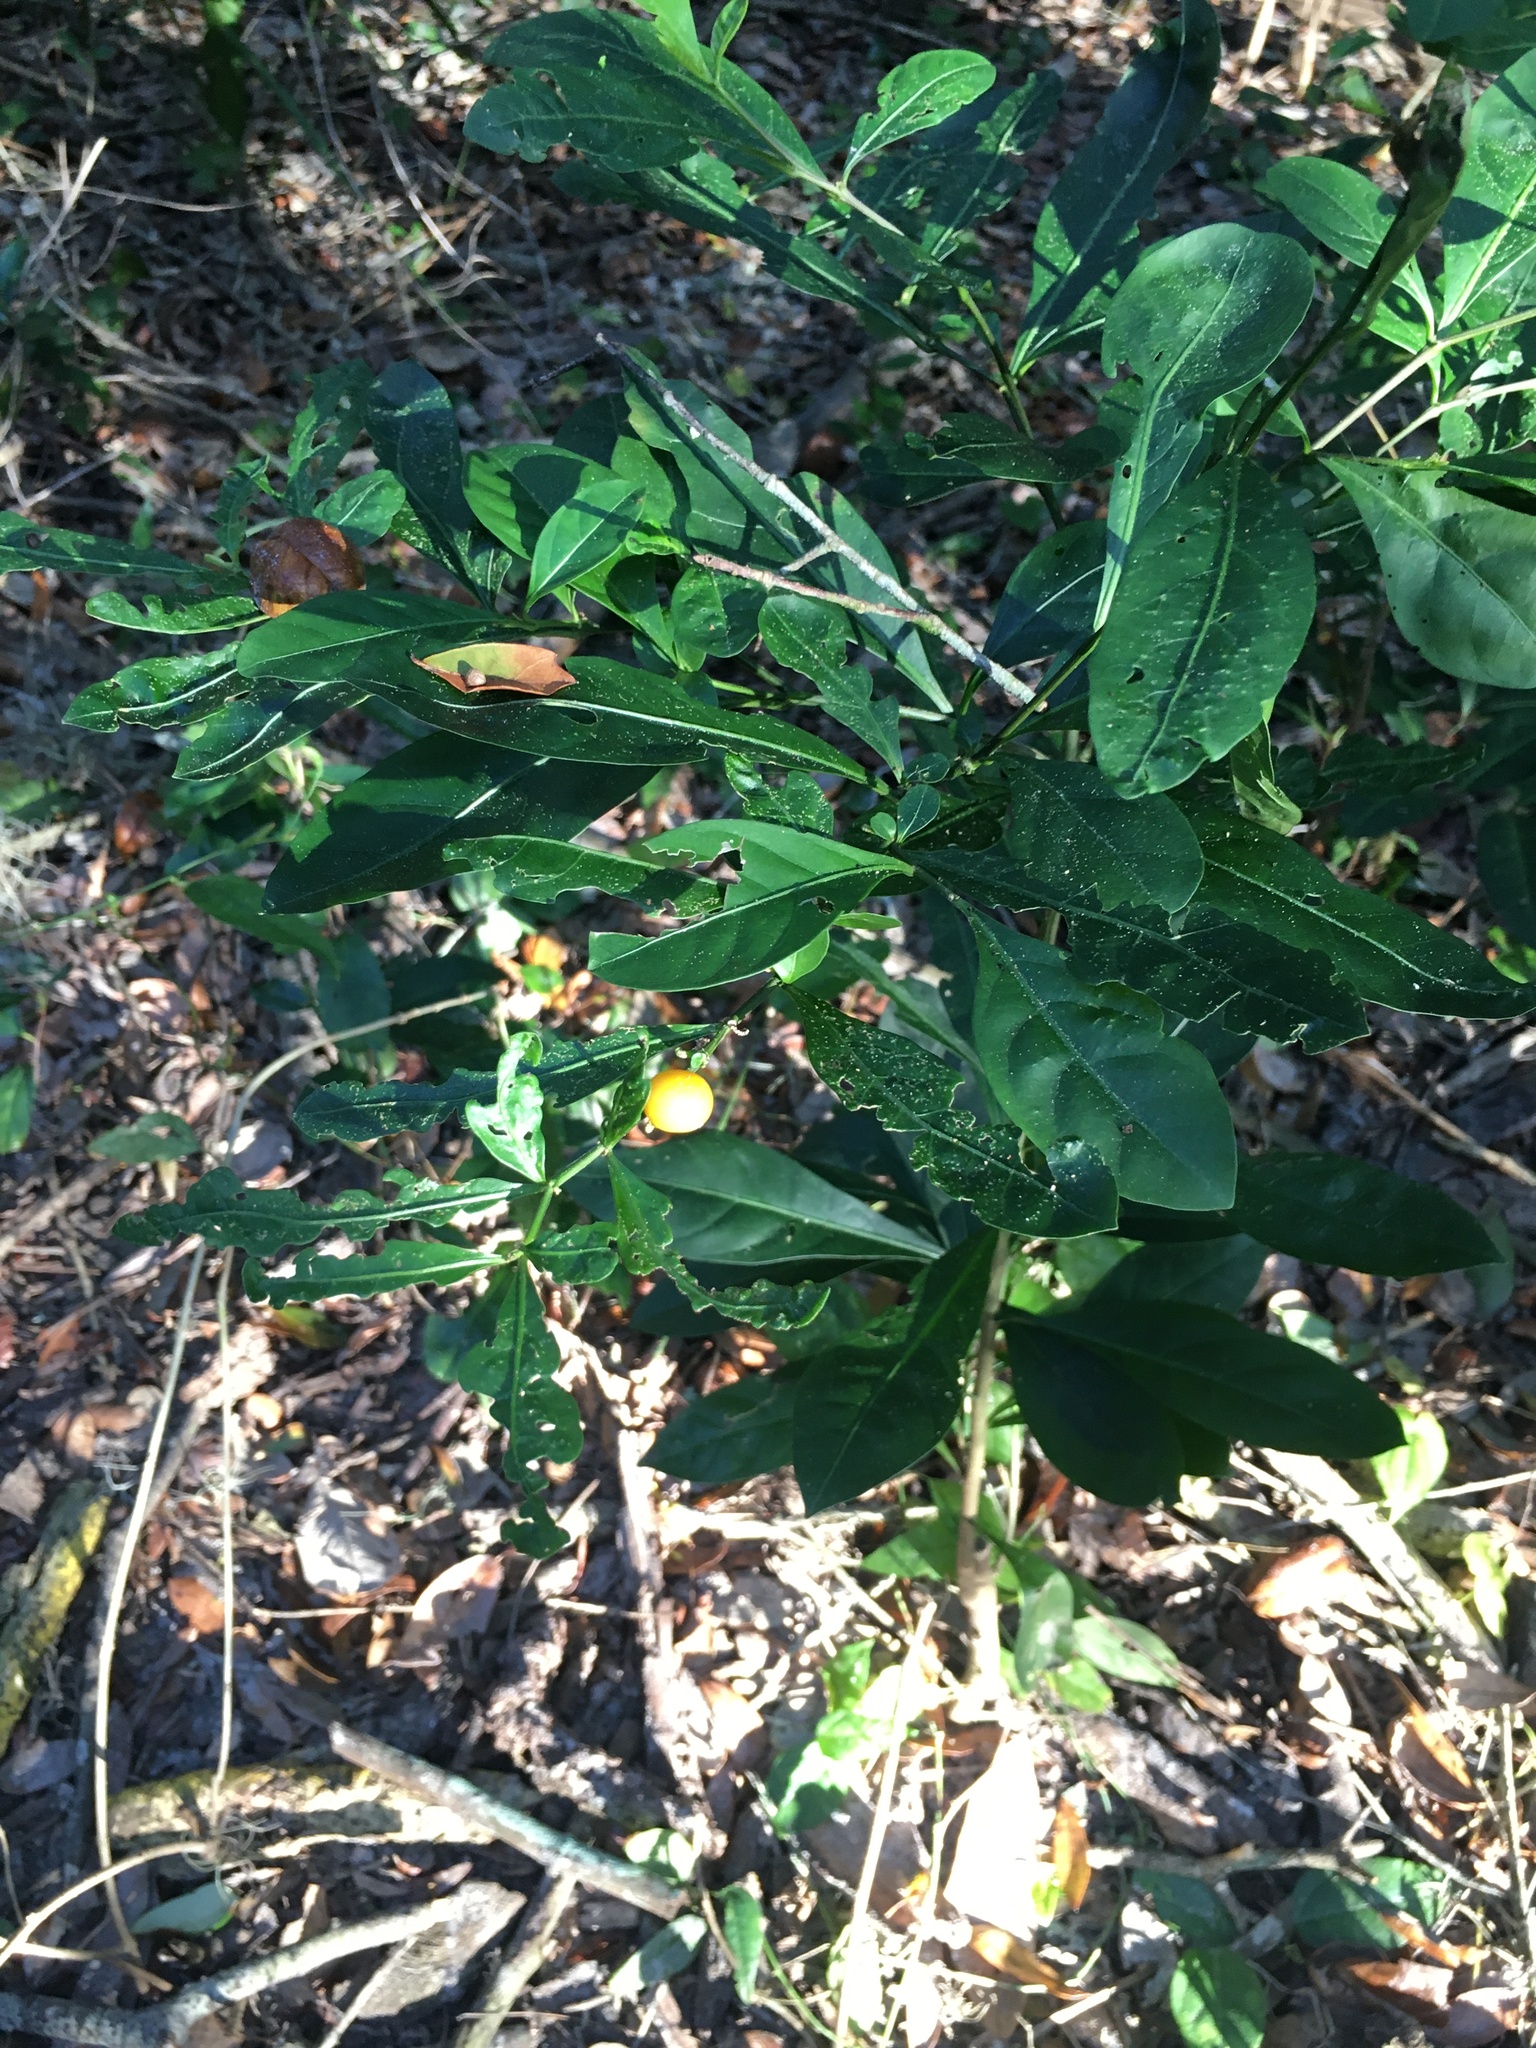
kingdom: Plantae
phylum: Tracheophyta
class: Magnoliopsida
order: Solanales
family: Solanaceae
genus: Solanum
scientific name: Solanum diphyllum
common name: Twoleaf nightshade
